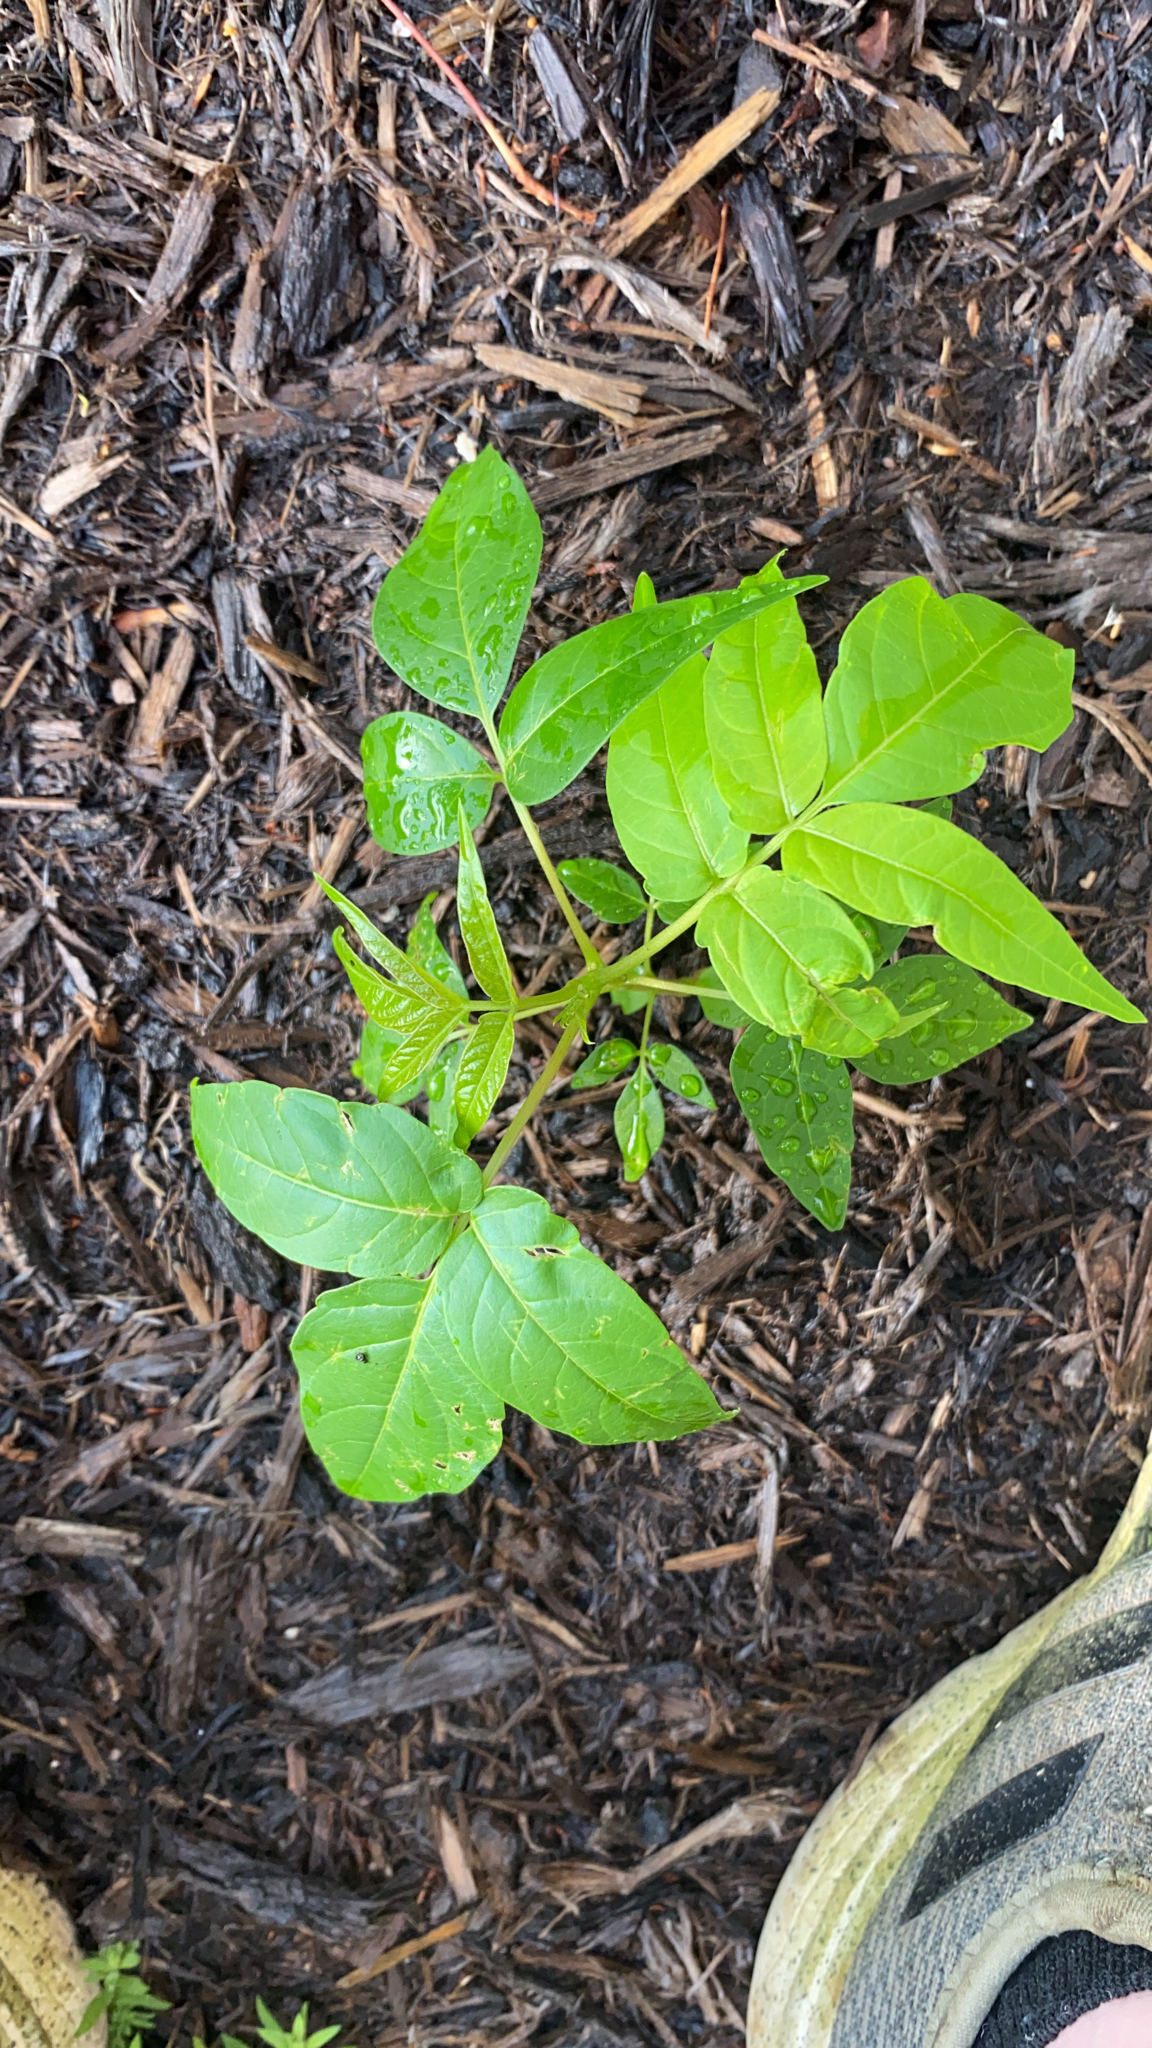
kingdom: Plantae
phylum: Tracheophyta
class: Magnoliopsida
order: Sapindales
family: Simaroubaceae
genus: Ailanthus
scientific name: Ailanthus altissima
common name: Tree-of-heaven
